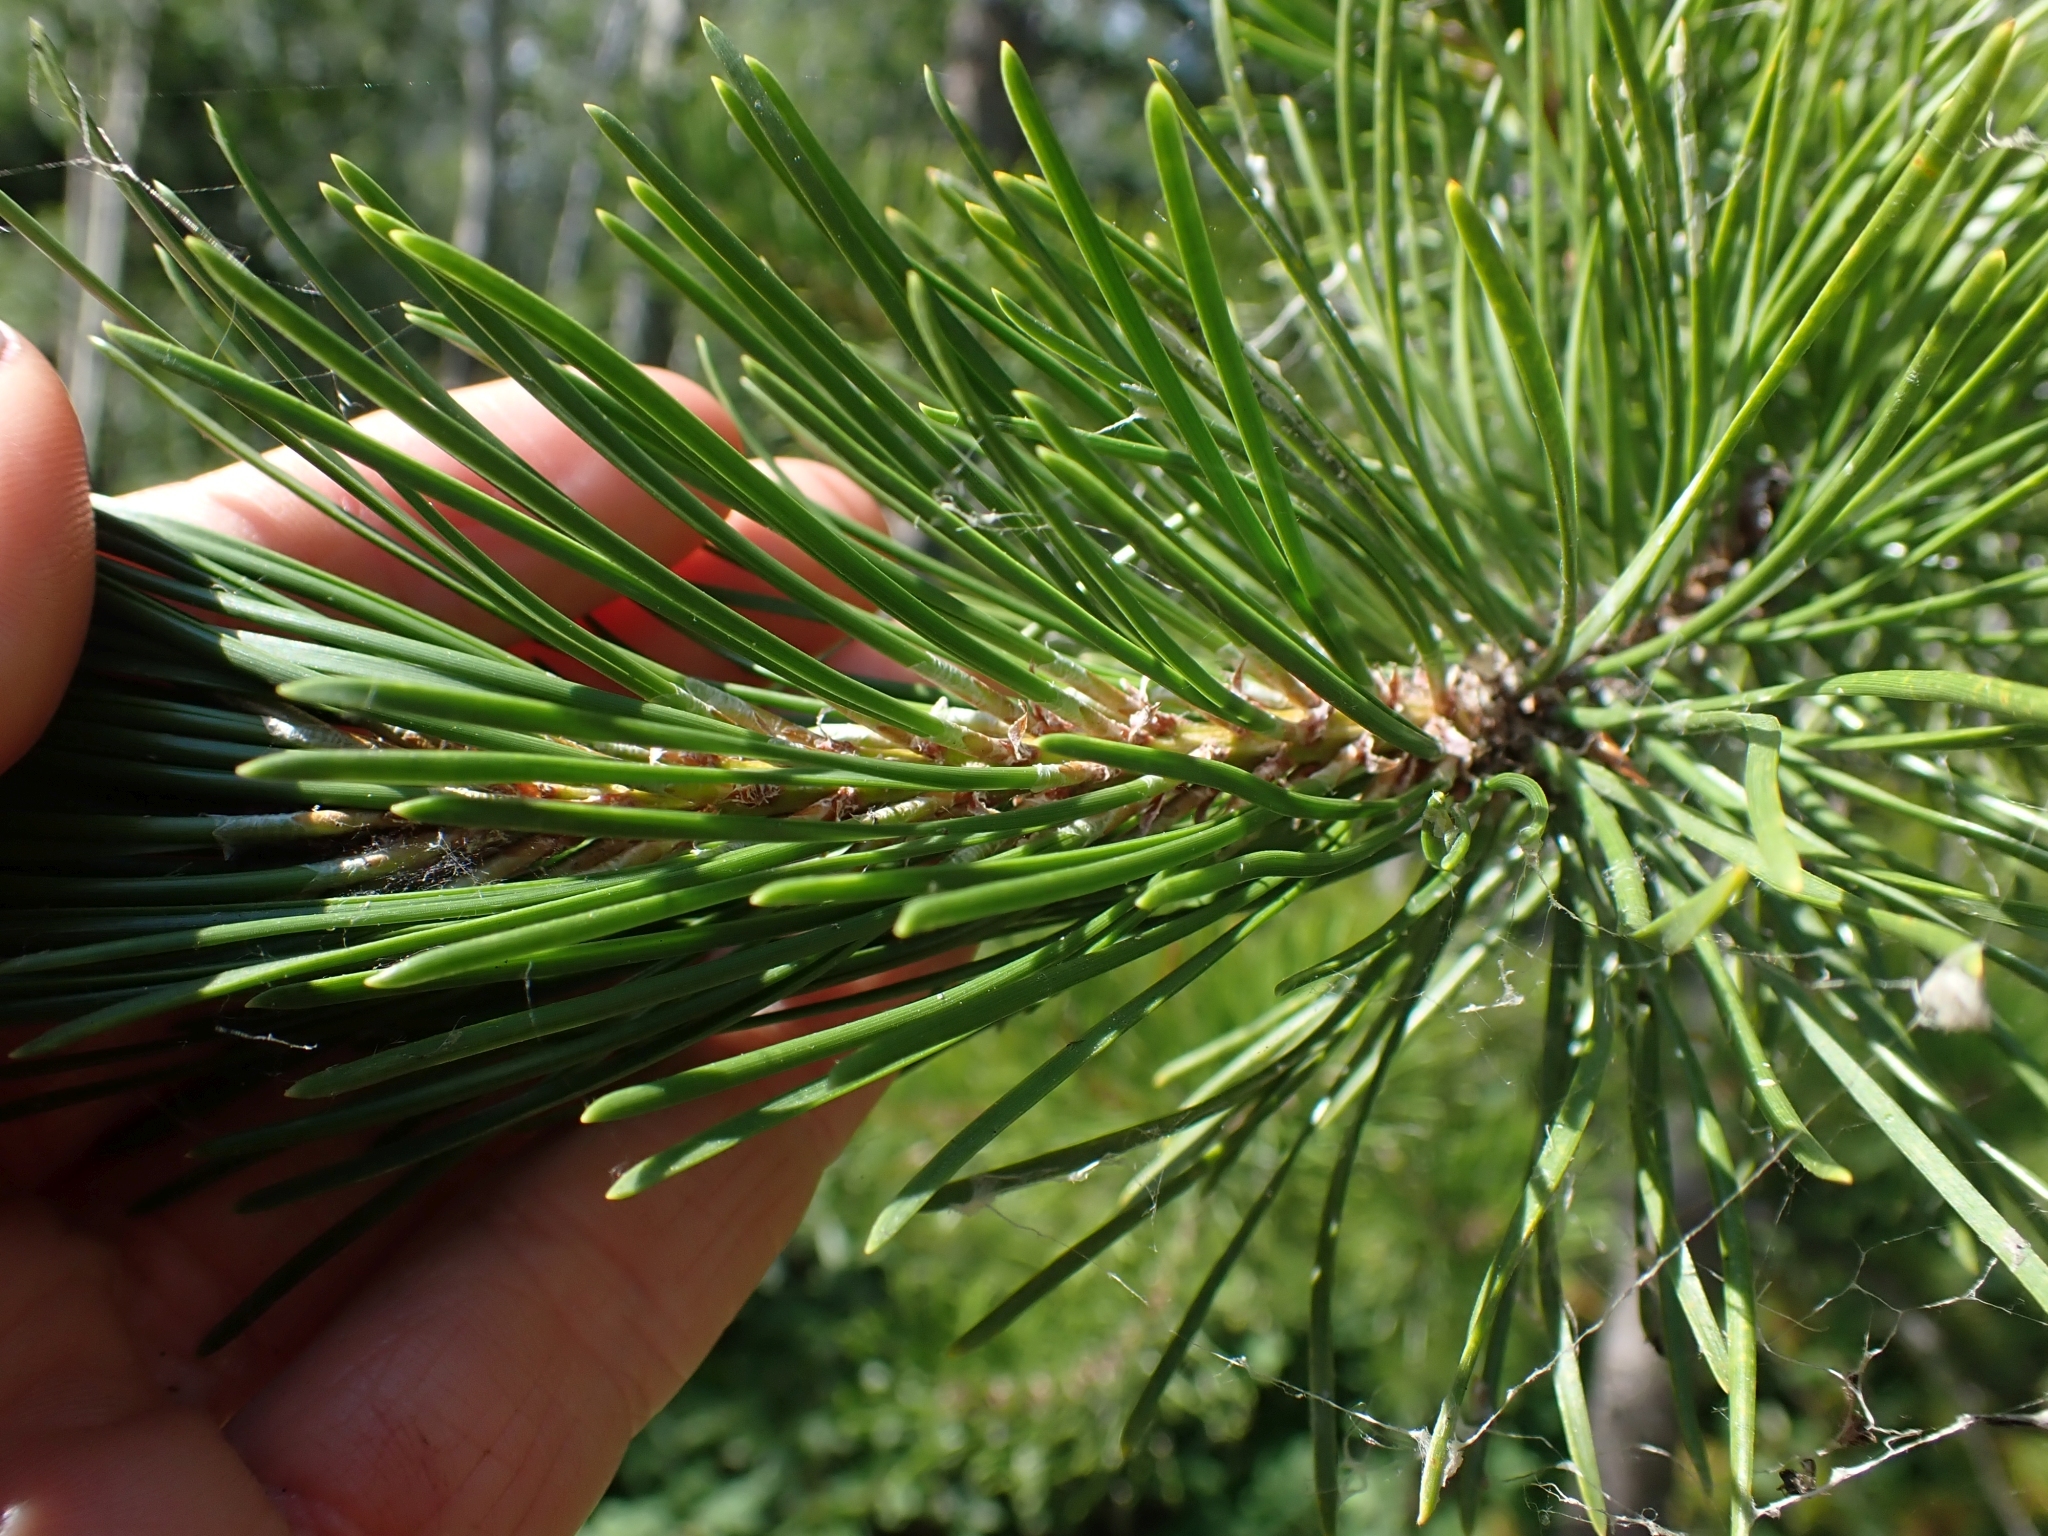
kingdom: Plantae
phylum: Tracheophyta
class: Pinopsida
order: Pinales
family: Pinaceae
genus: Pinus
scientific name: Pinus contorta
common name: Lodgepole pine
